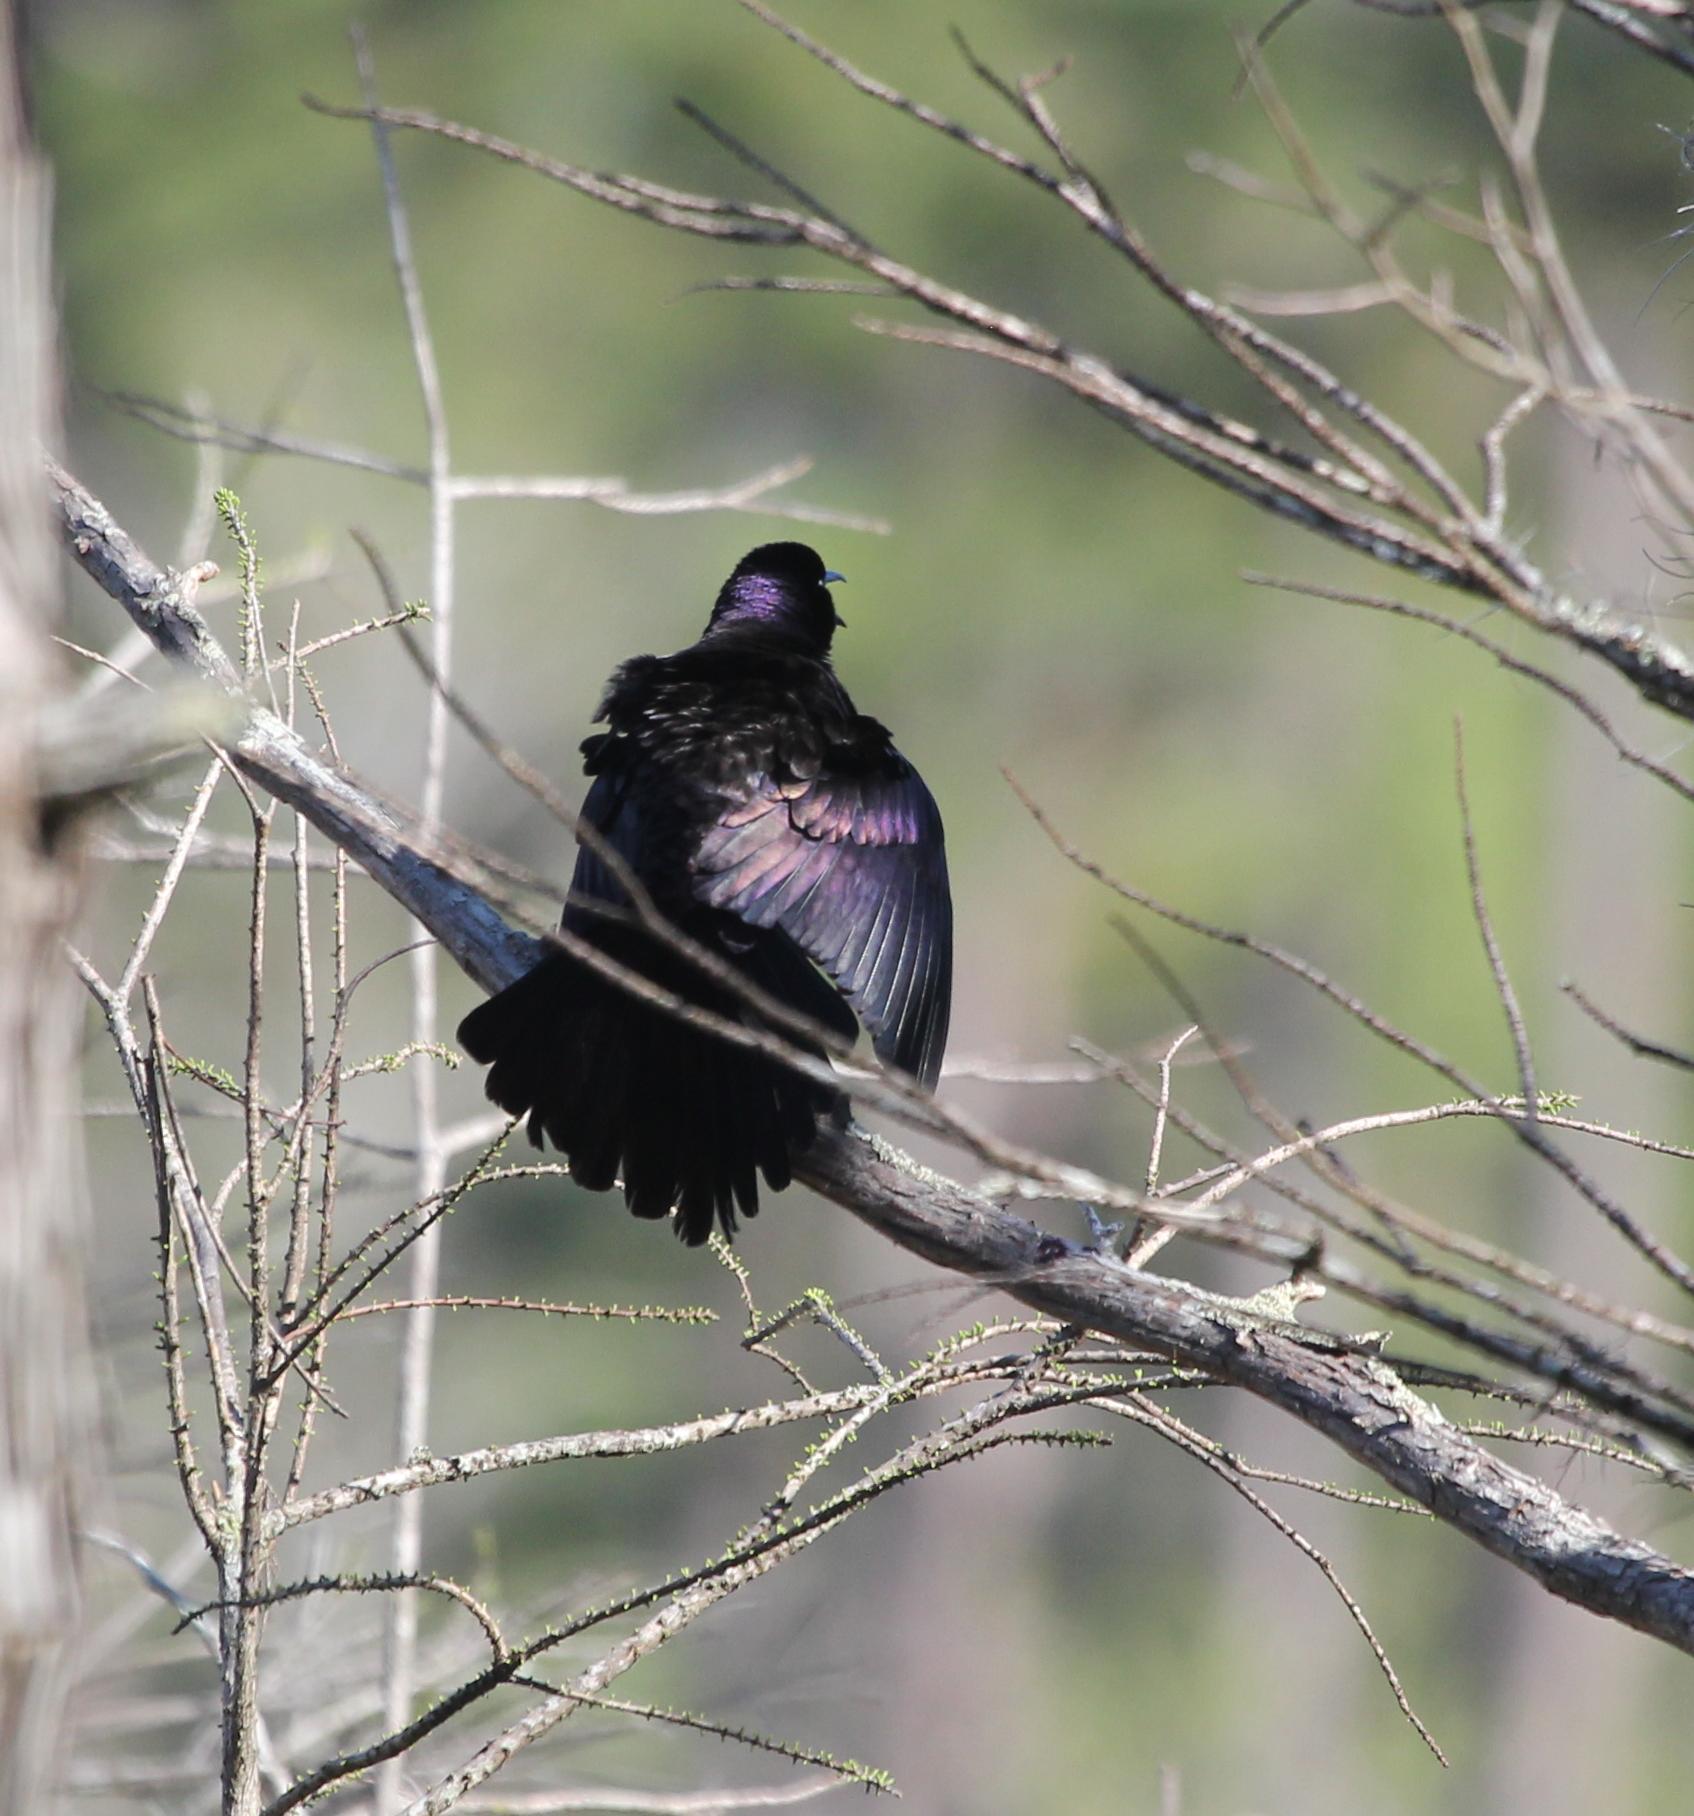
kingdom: Animalia
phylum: Chordata
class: Aves
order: Passeriformes
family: Icteridae
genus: Quiscalus
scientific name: Quiscalus quiscula
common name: Common grackle
